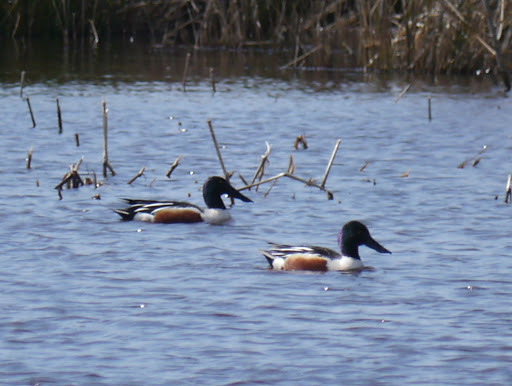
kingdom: Animalia
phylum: Chordata
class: Aves
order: Anseriformes
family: Anatidae
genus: Spatula
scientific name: Spatula clypeata
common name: Northern shoveler
